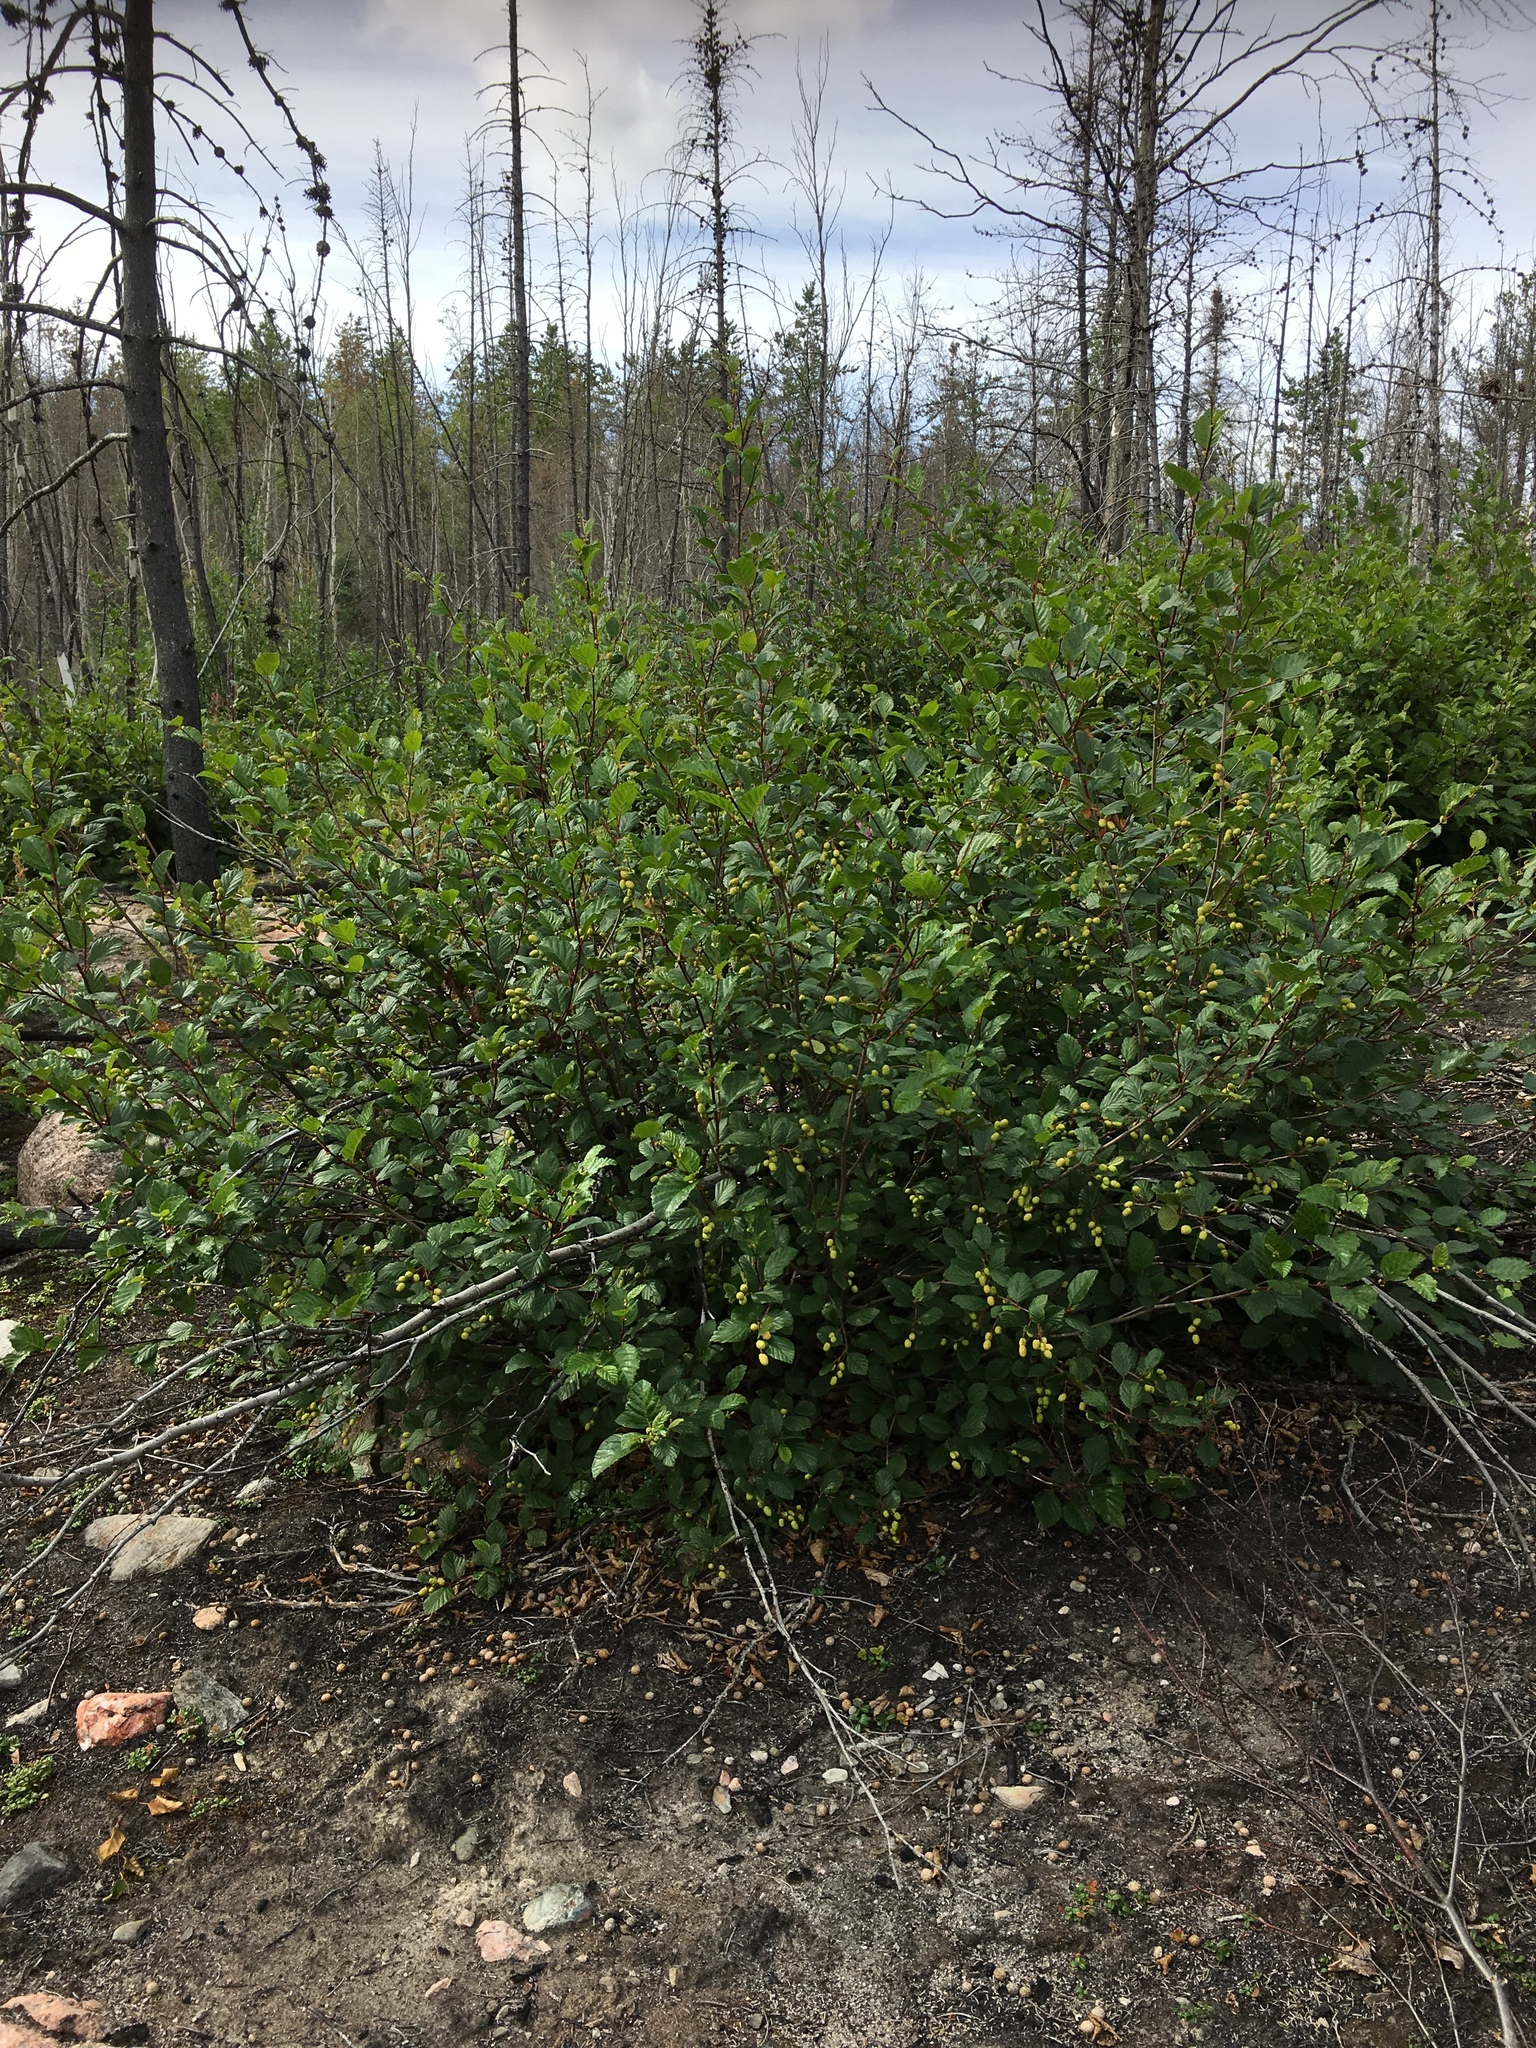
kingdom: Plantae
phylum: Tracheophyta
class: Magnoliopsida
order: Fagales
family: Betulaceae
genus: Alnus
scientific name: Alnus alnobetula
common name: Green alder
